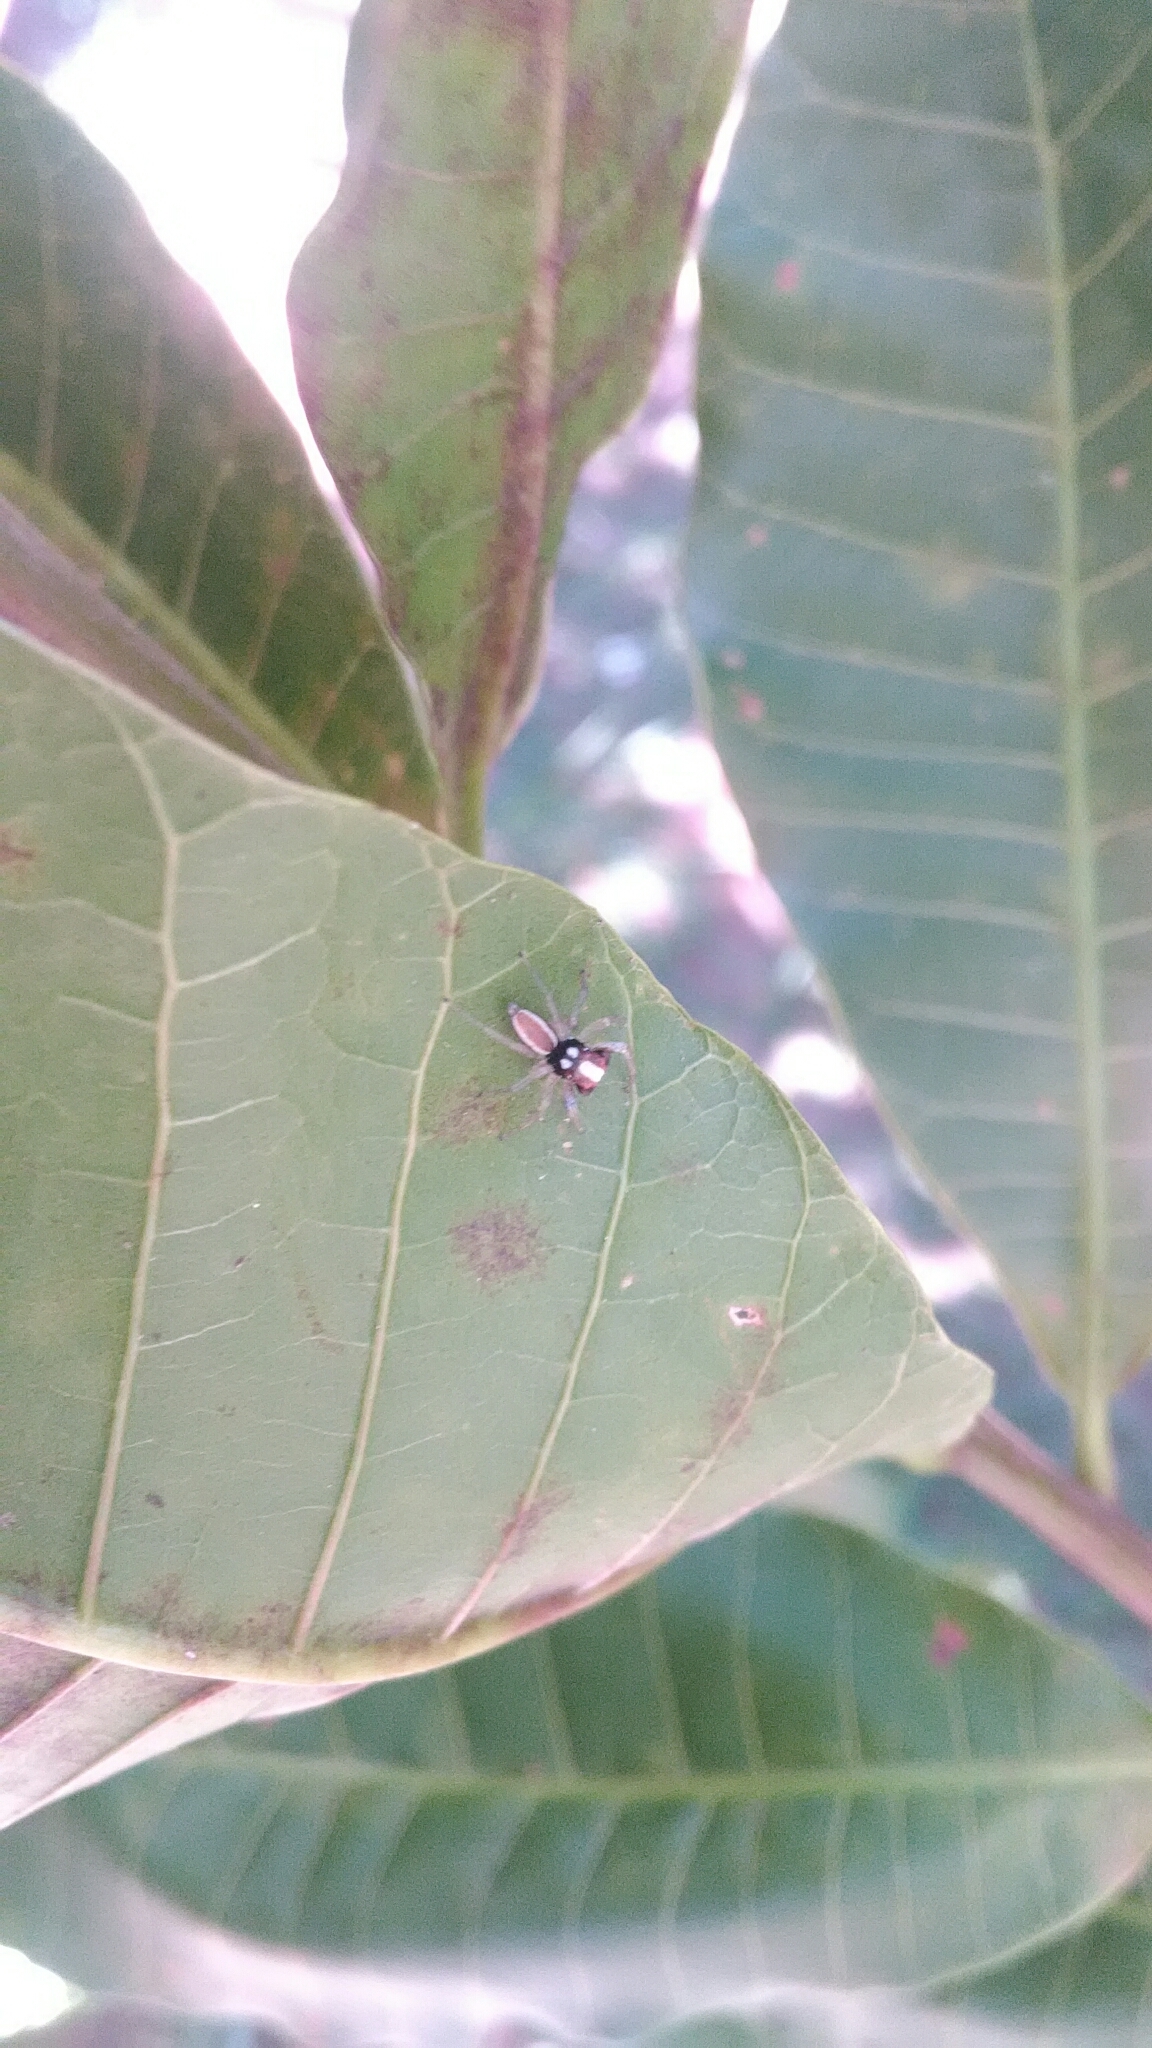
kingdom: Animalia
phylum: Arthropoda
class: Arachnida
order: Araneae
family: Salticidae
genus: Chira
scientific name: Chira spinosa
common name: Jumping spiders
